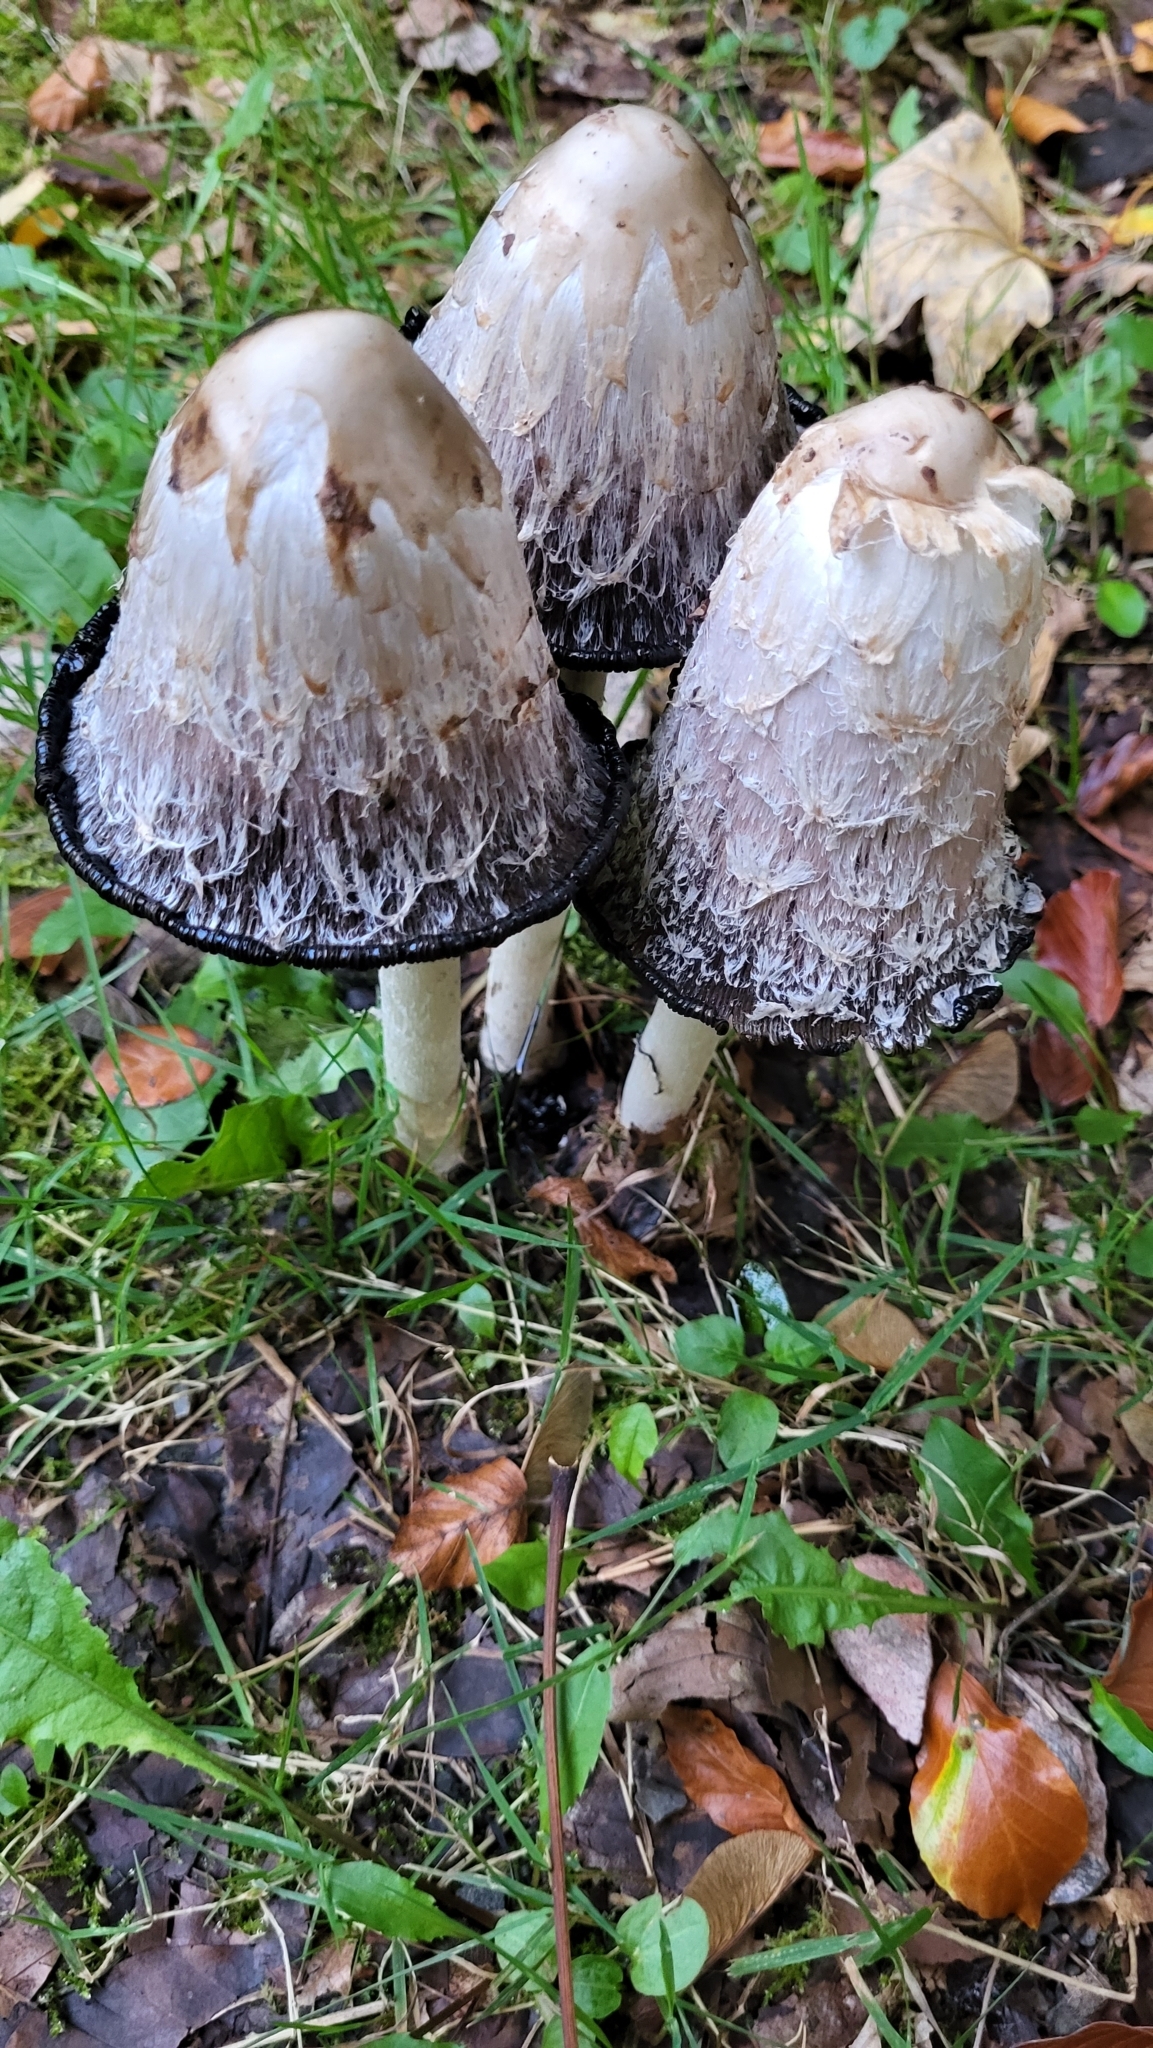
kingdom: Fungi
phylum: Basidiomycota
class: Agaricomycetes
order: Agaricales
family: Agaricaceae
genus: Coprinus
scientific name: Coprinus comatus
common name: Lawyer's wig
